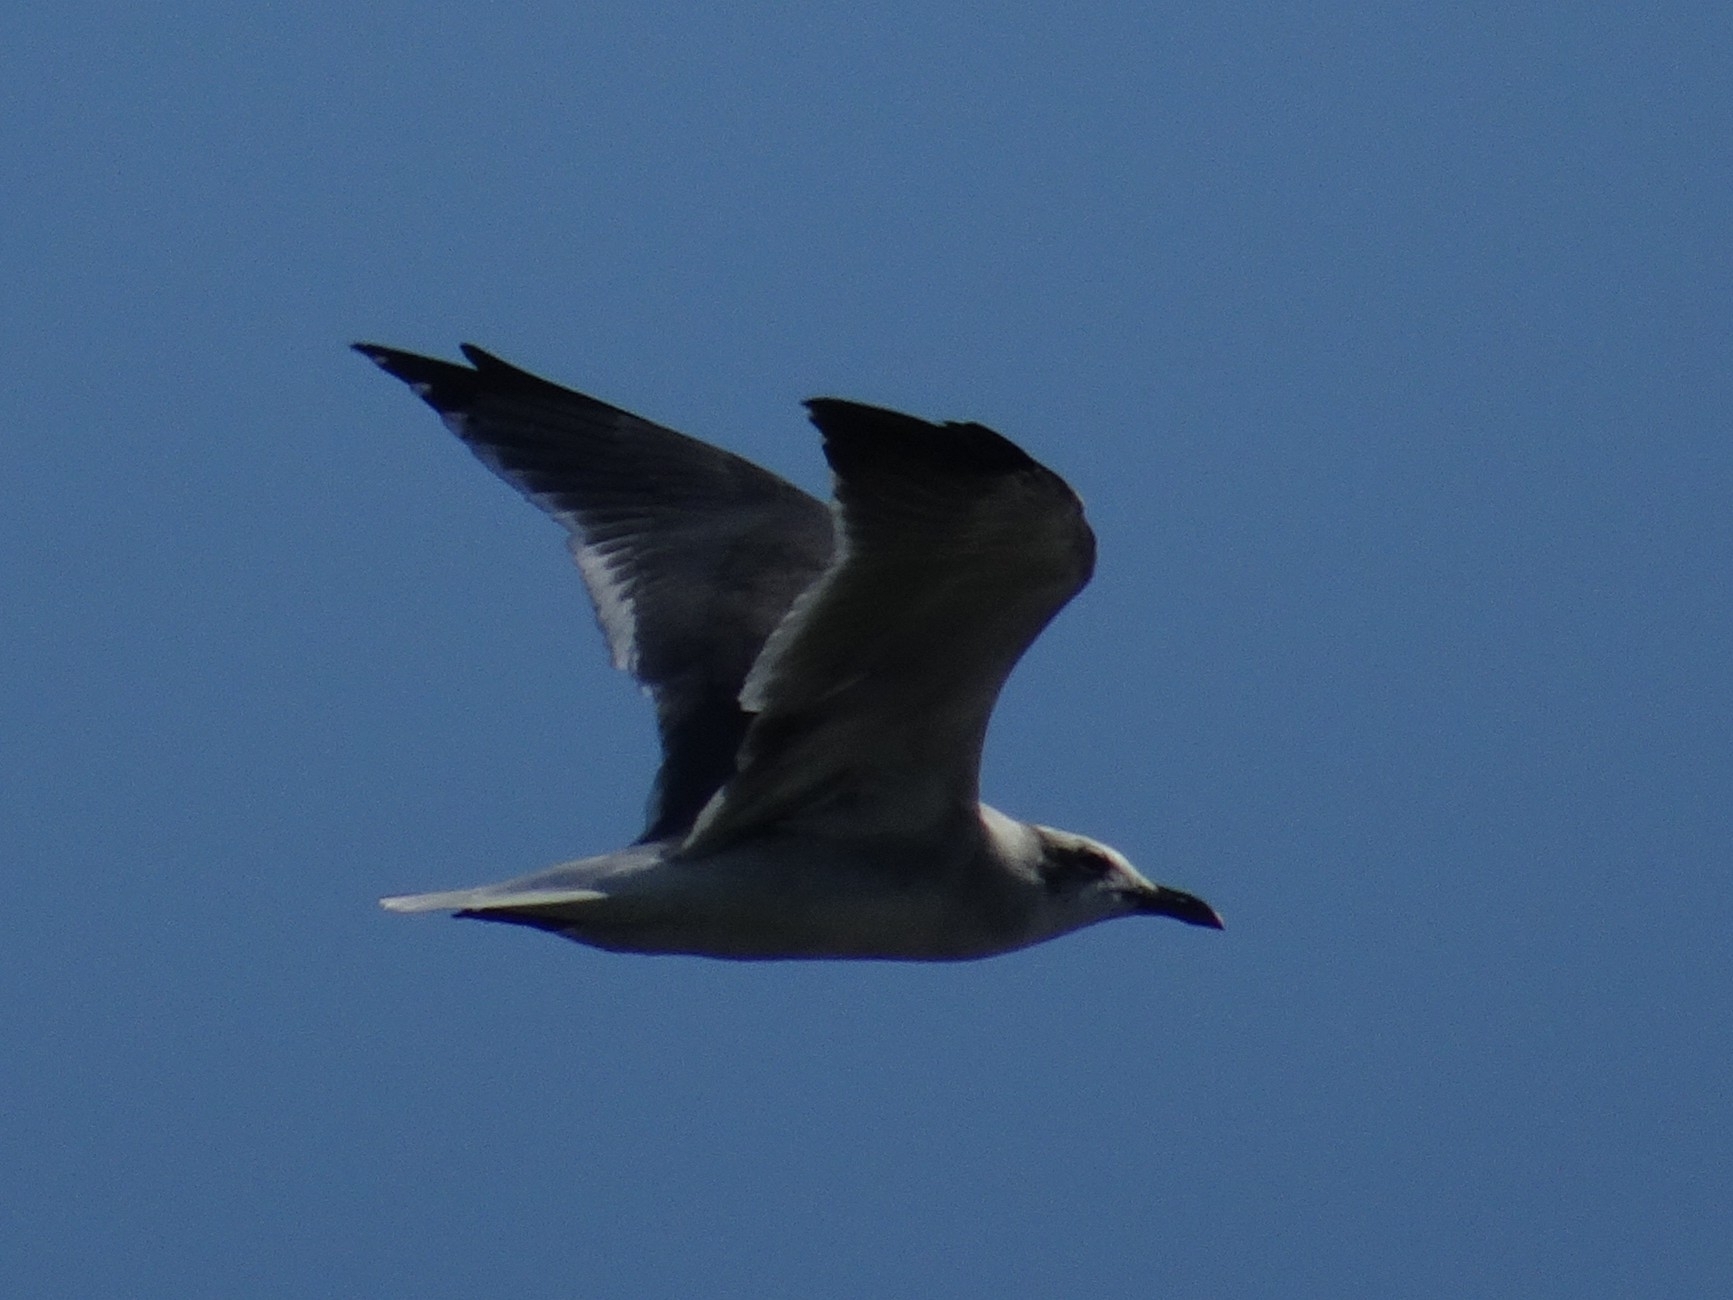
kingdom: Animalia
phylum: Chordata
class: Aves
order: Charadriiformes
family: Laridae
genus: Leucophaeus
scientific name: Leucophaeus atricilla
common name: Laughing gull
